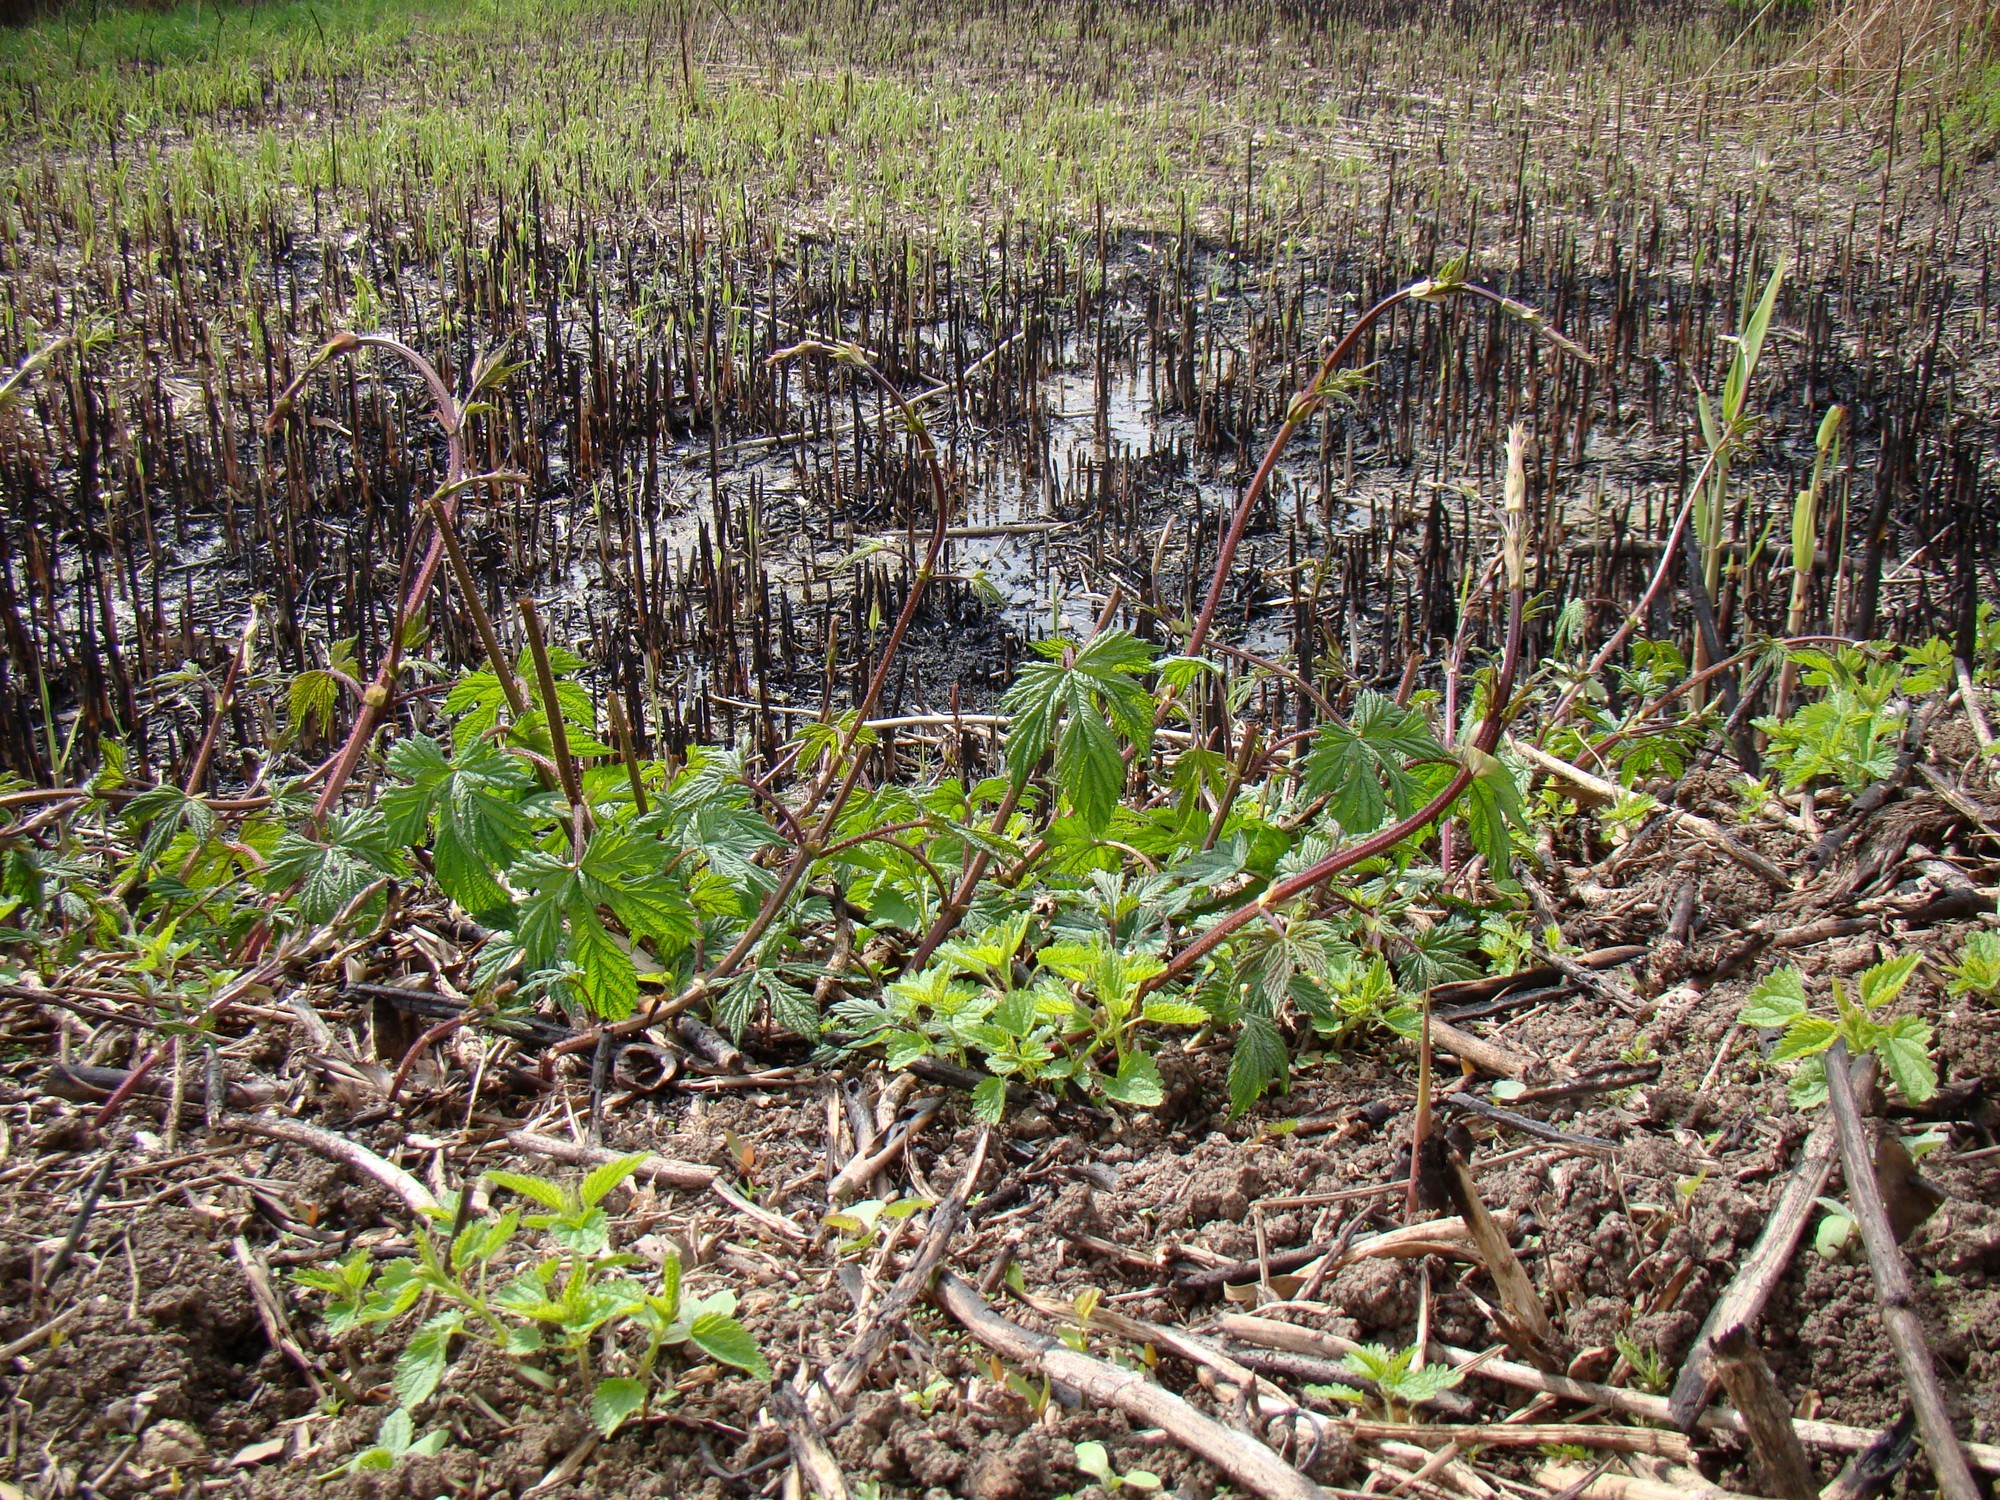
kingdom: Plantae
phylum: Tracheophyta
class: Magnoliopsida
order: Rosales
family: Cannabaceae
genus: Humulus
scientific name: Humulus lupulus
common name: Hop
